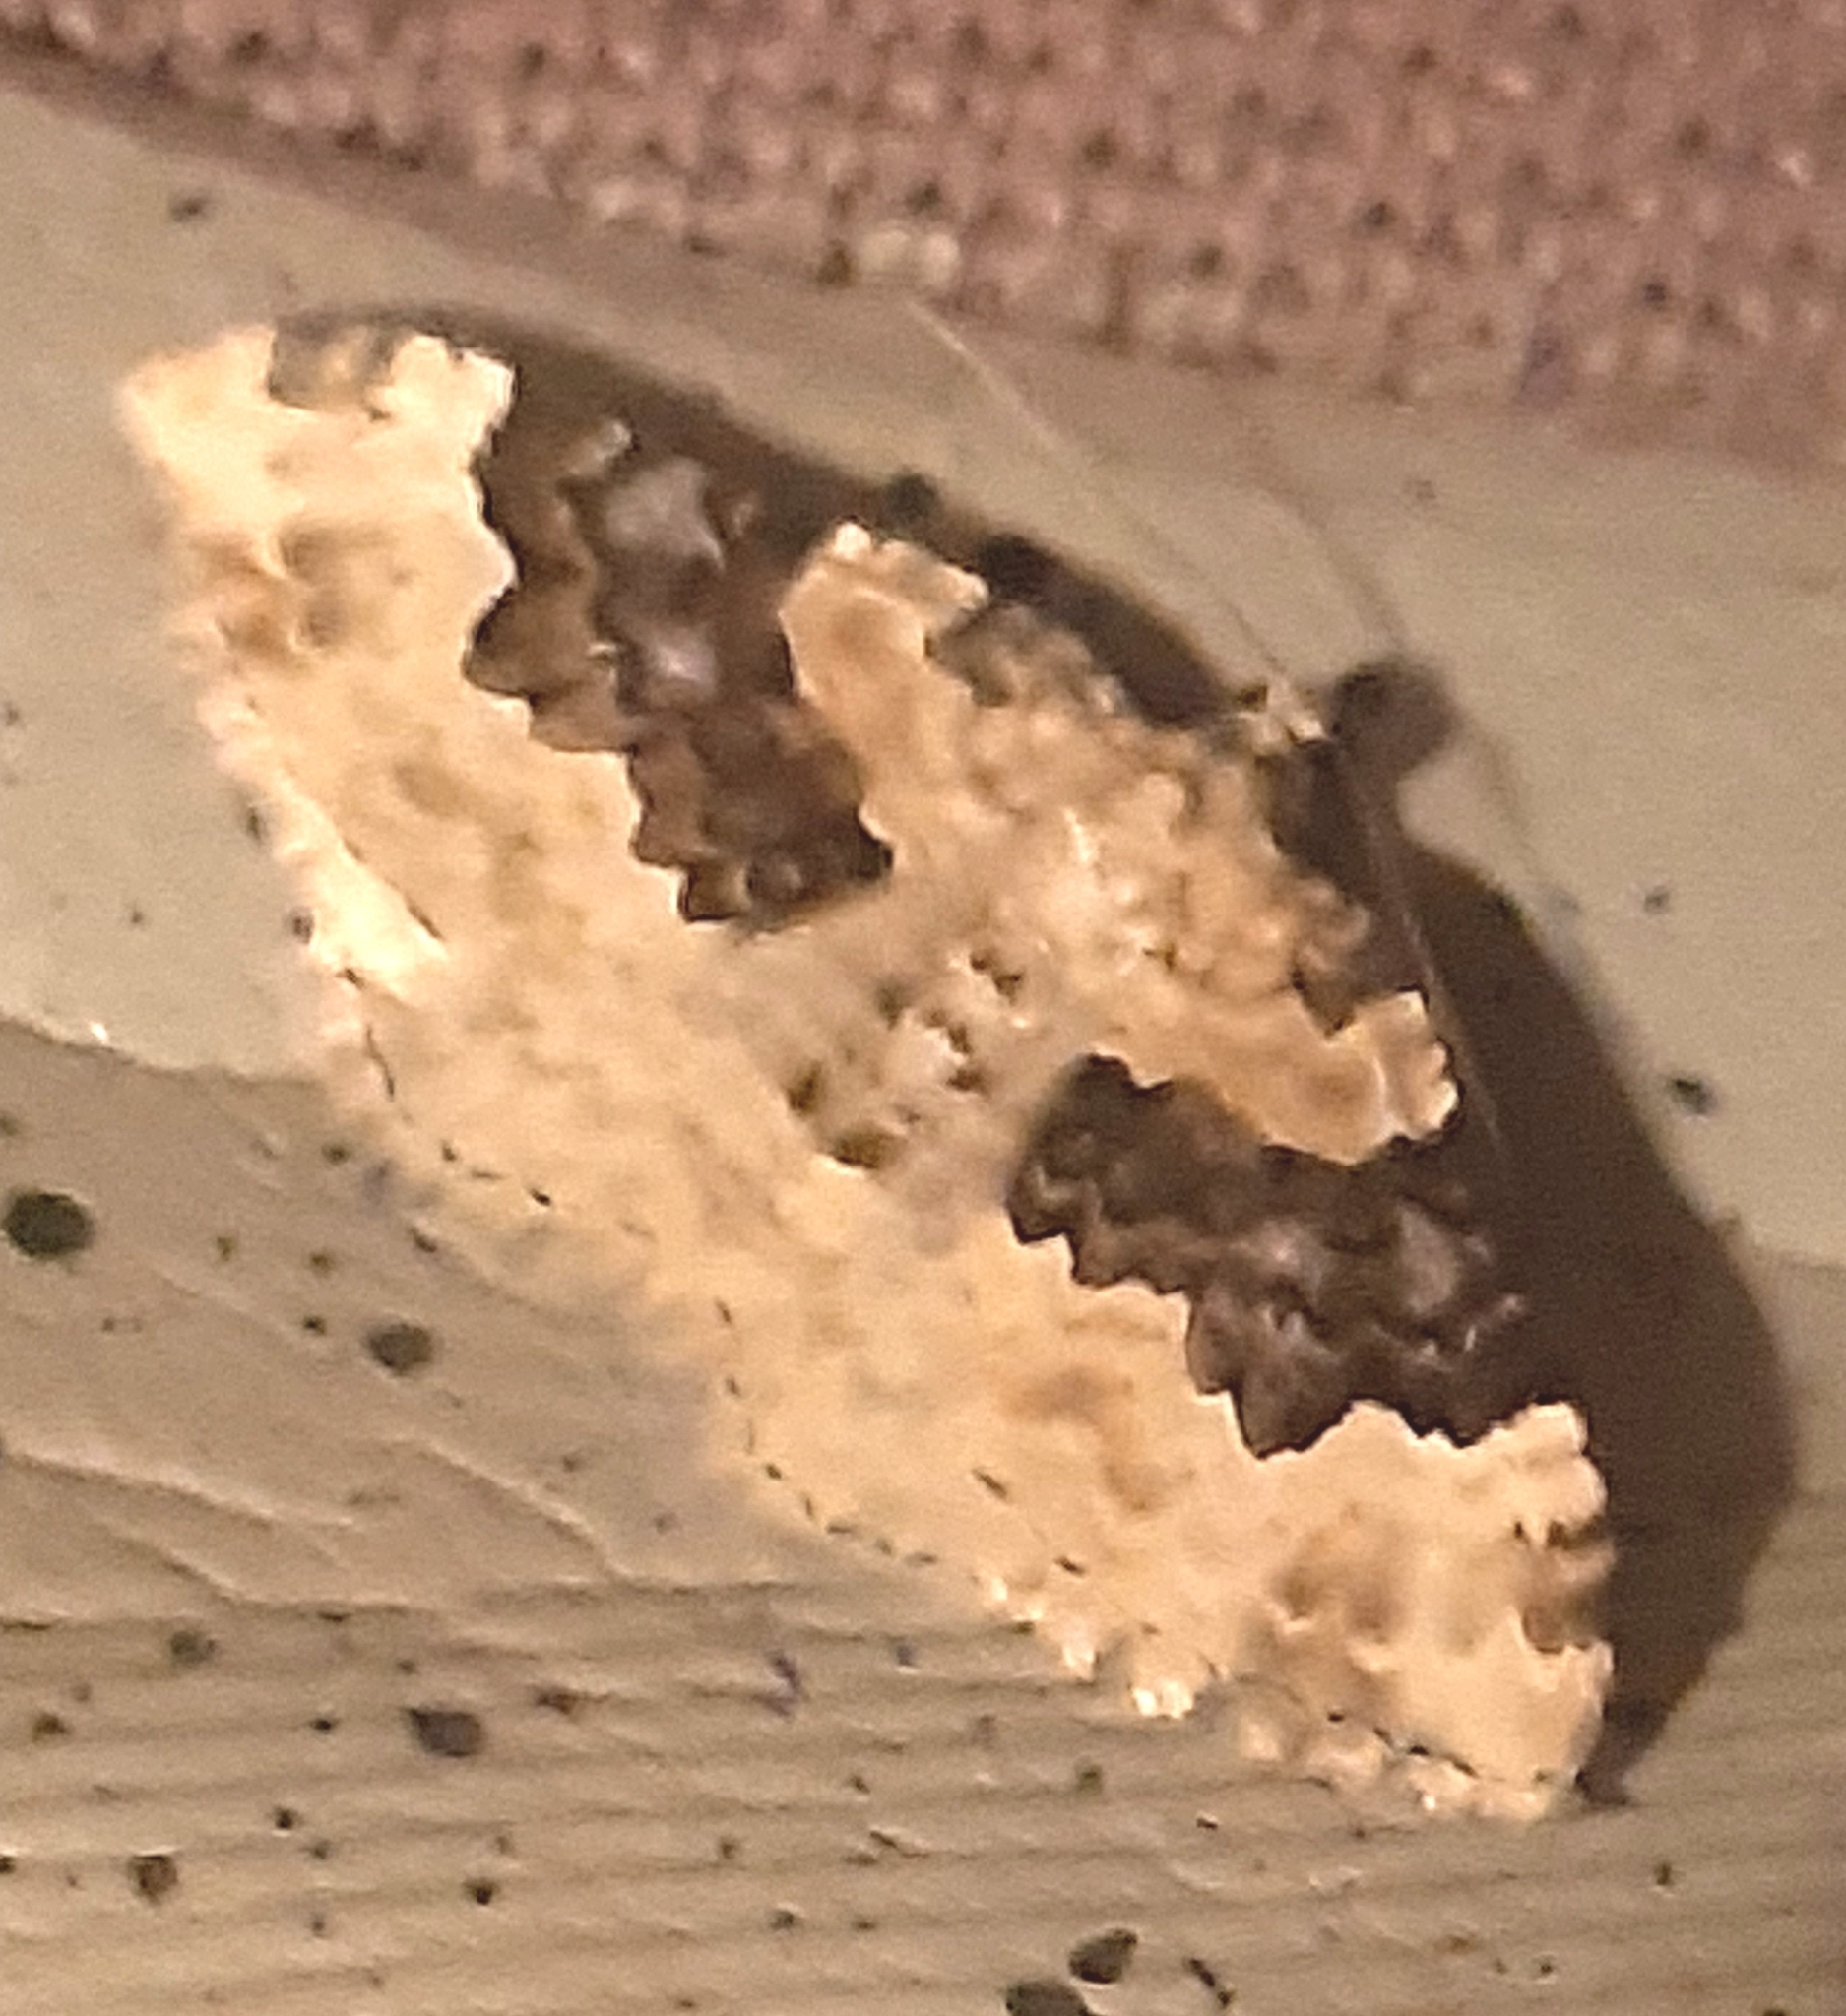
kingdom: Animalia
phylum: Arthropoda
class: Insecta
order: Lepidoptera
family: Geometridae
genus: Epirrhoe
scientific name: Epirrhoe galiata
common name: Galium carpet
